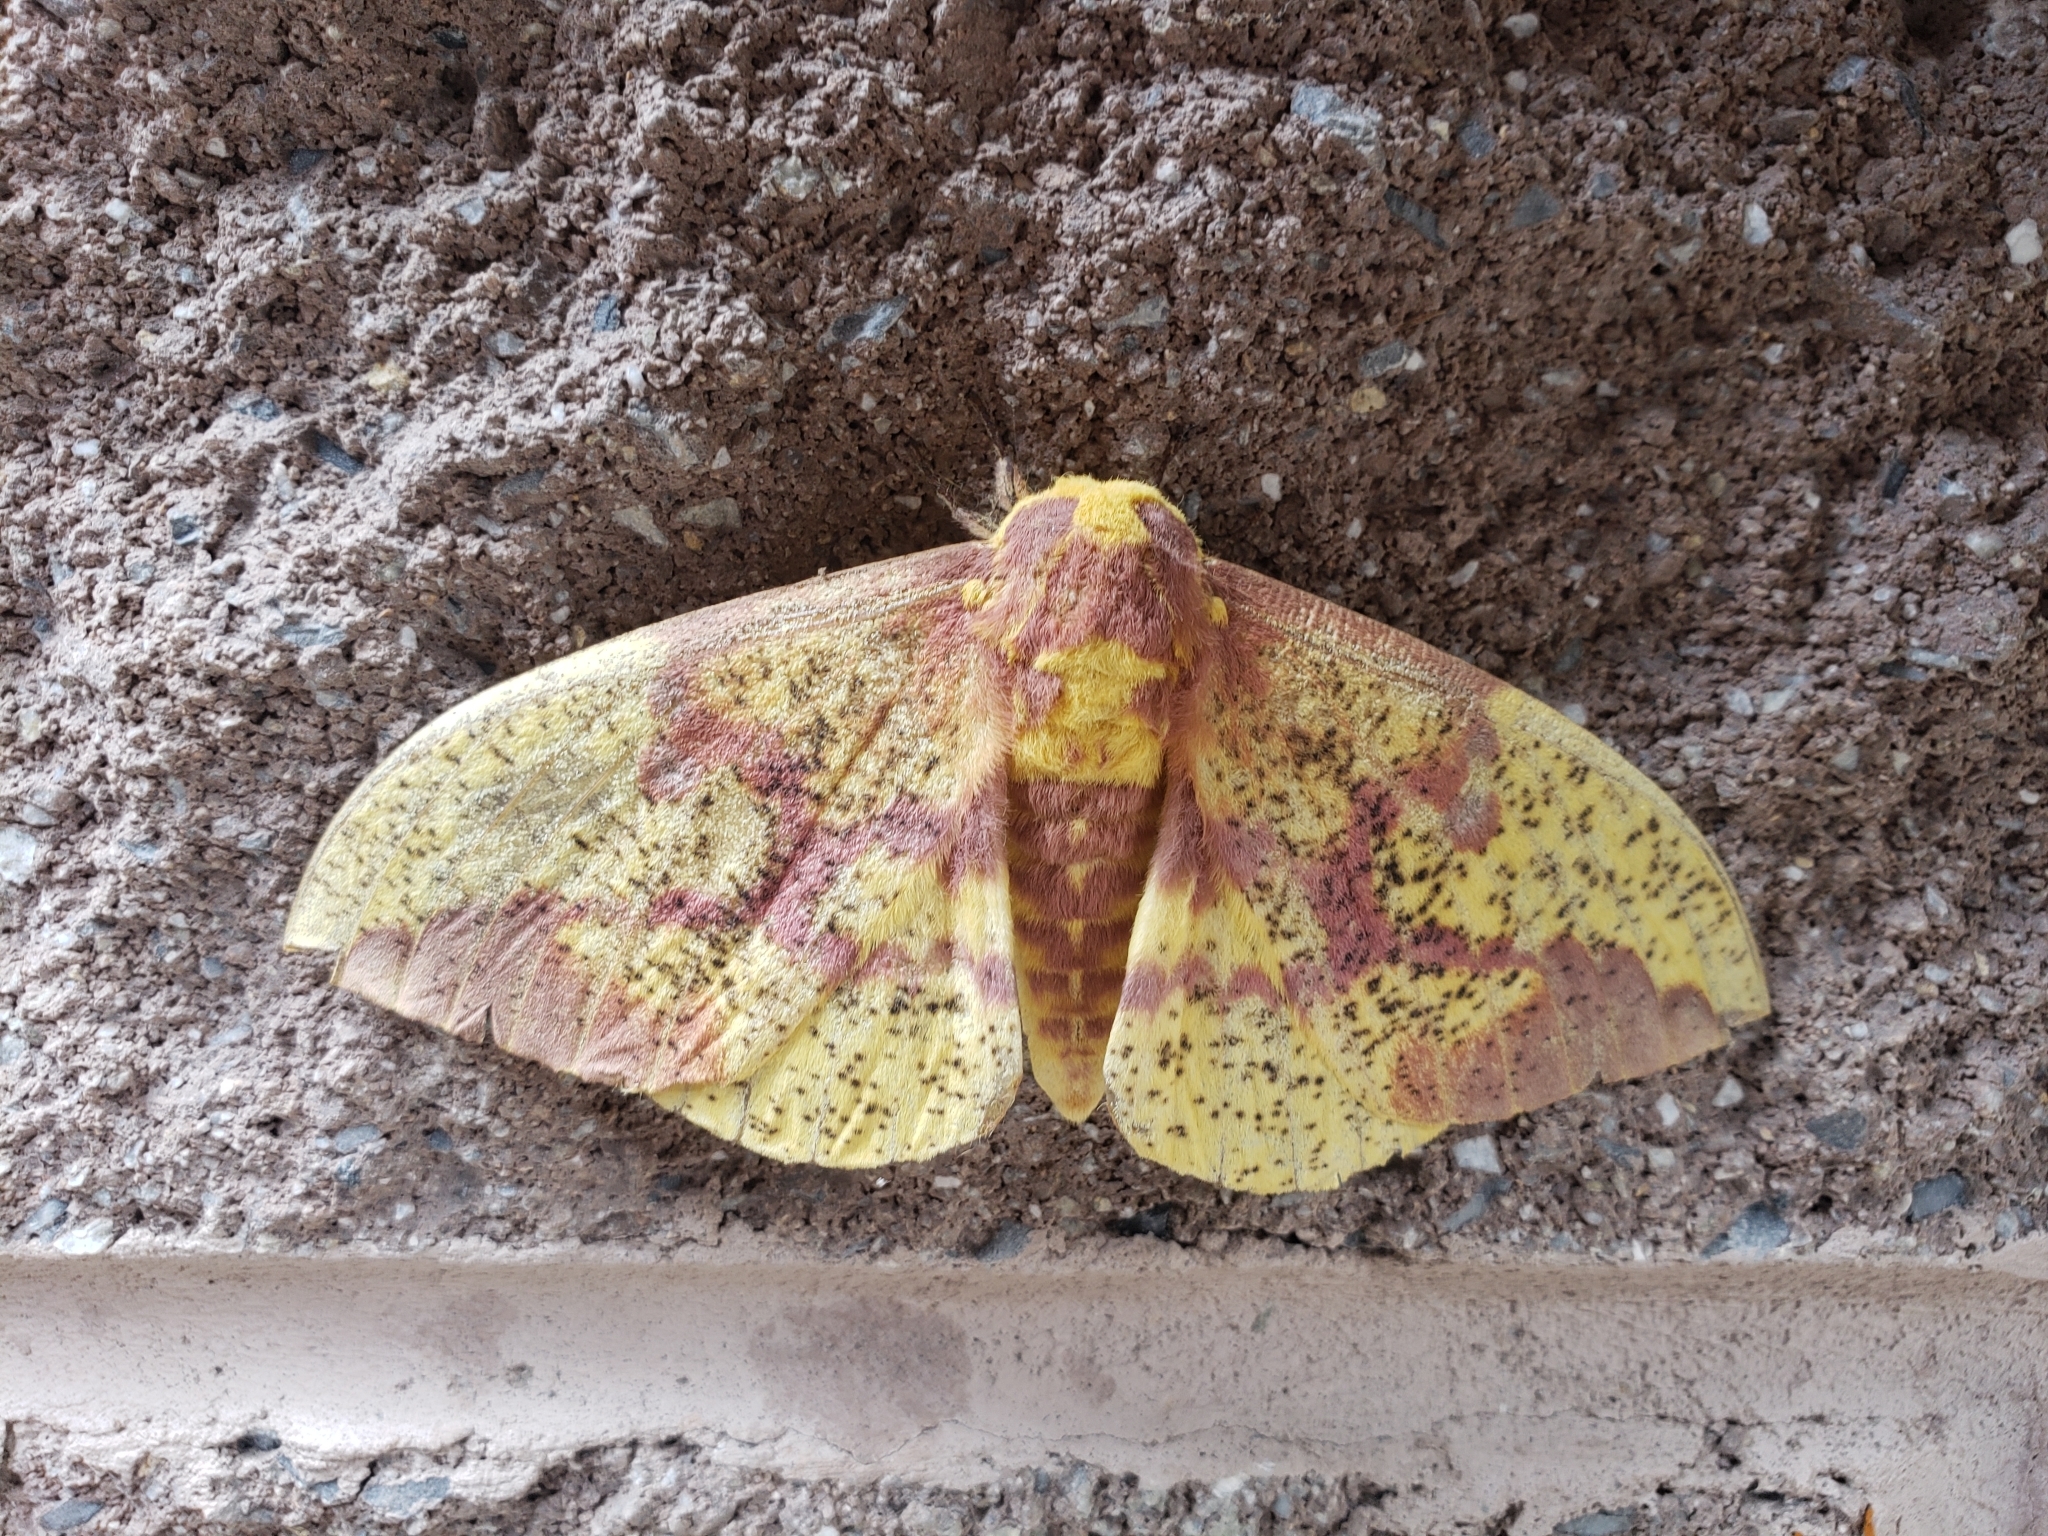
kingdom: Animalia
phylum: Arthropoda
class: Insecta
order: Lepidoptera
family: Saturniidae
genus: Eacles
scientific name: Eacles imperialis
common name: Imperial moth
